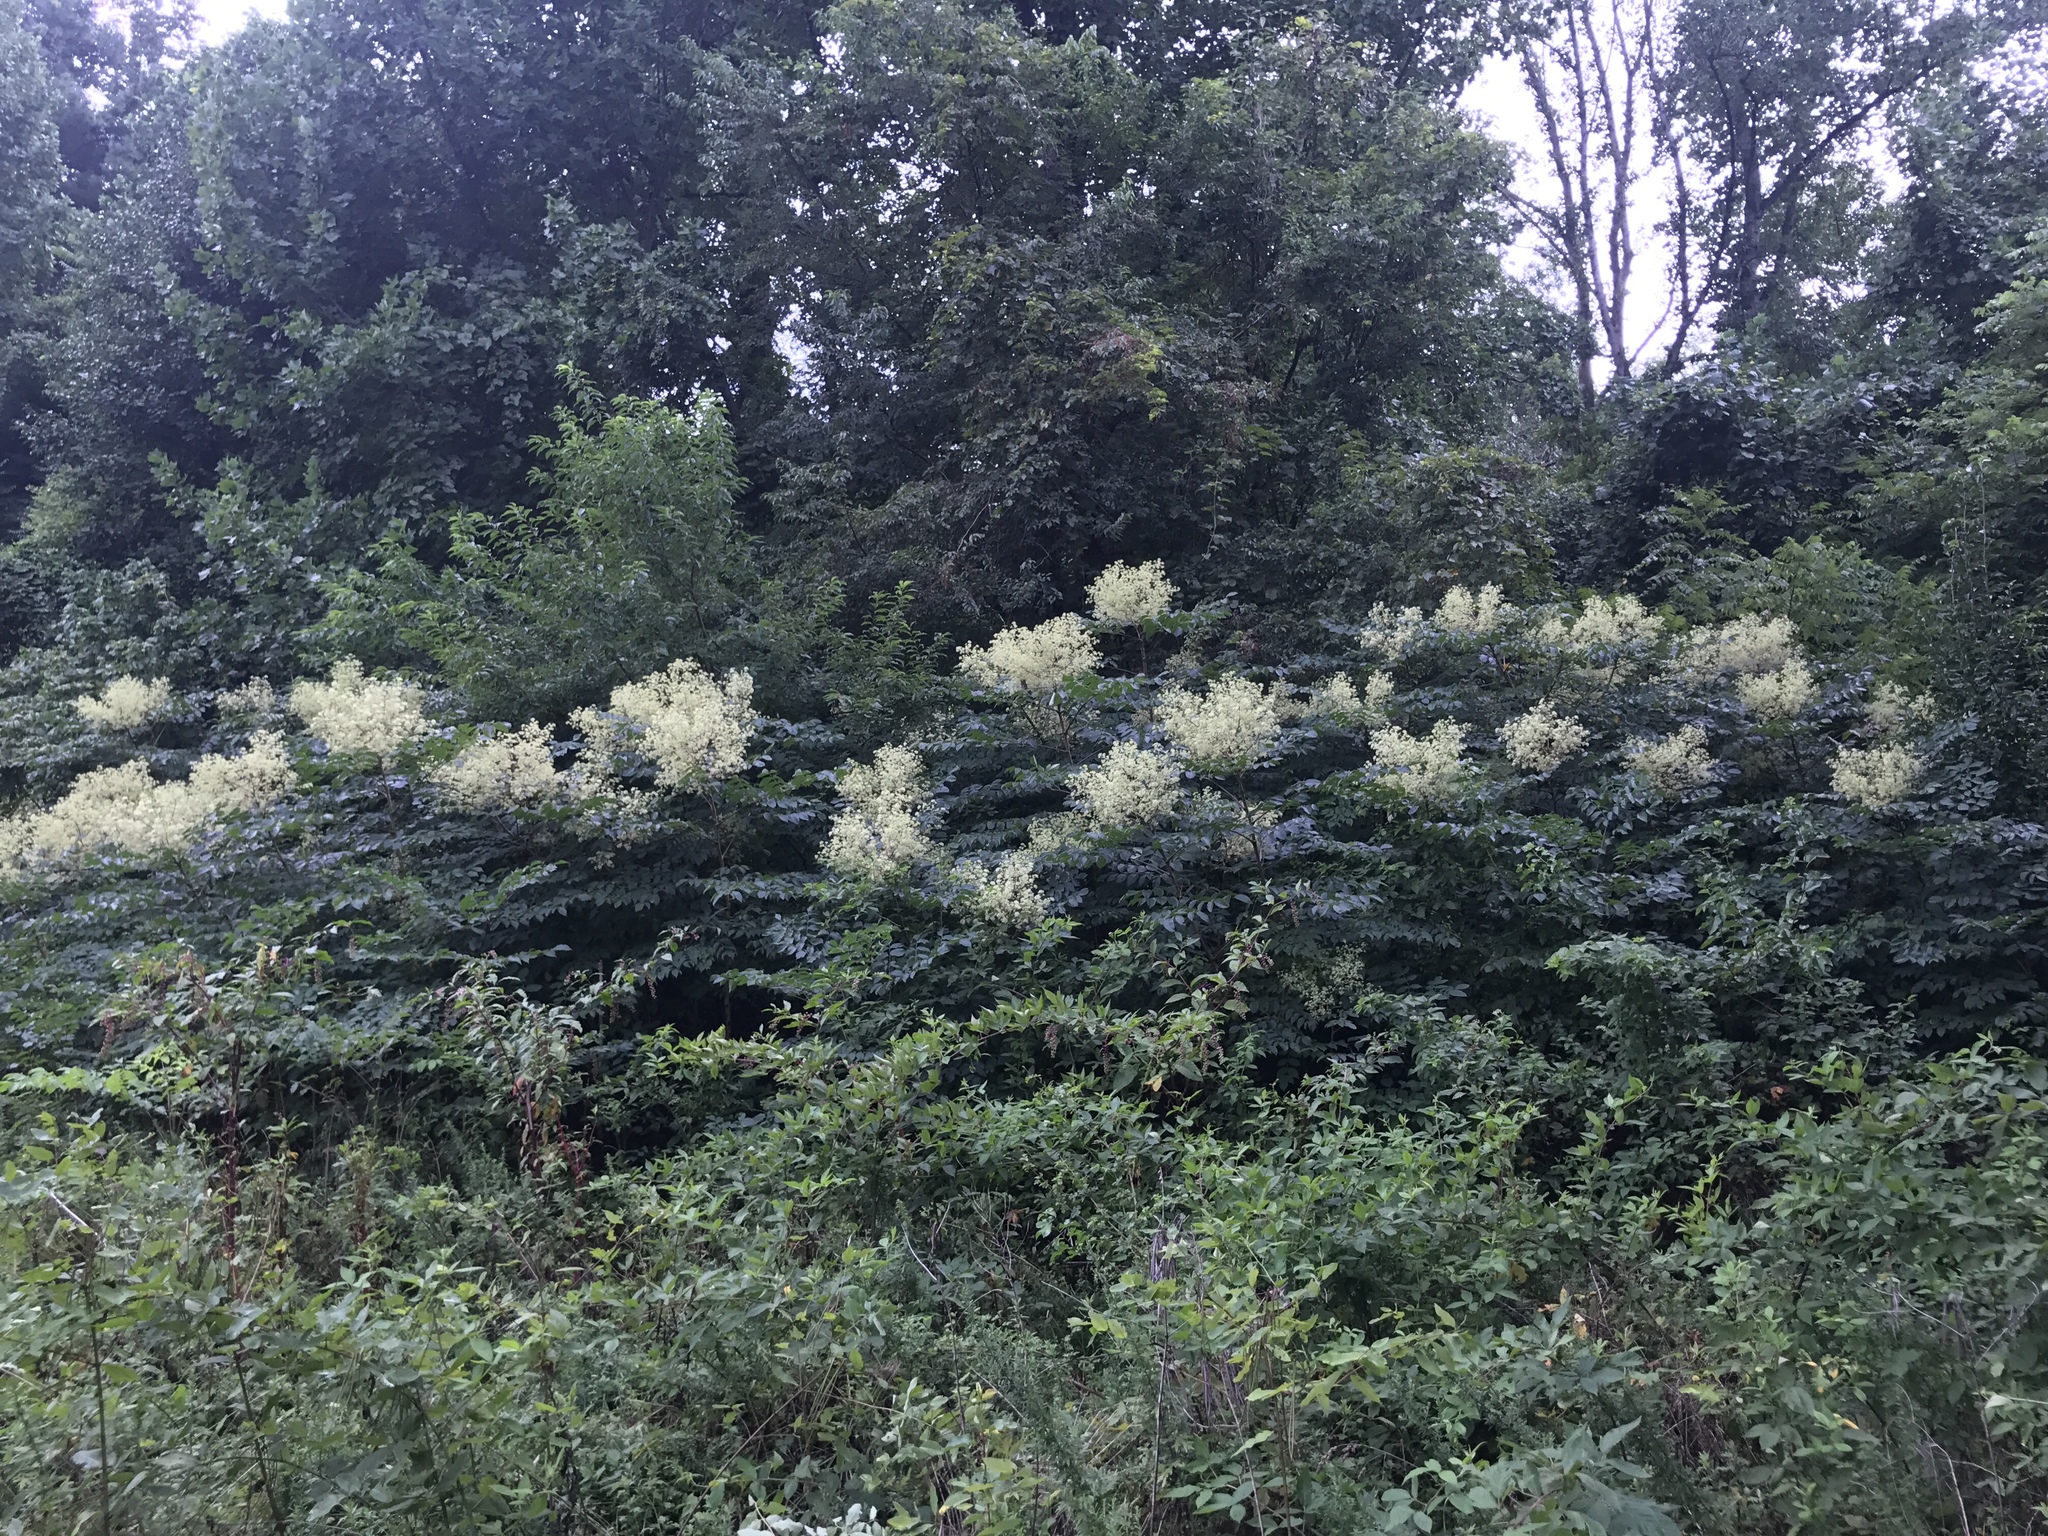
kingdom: Plantae
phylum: Tracheophyta
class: Magnoliopsida
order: Apiales
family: Araliaceae
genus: Aralia
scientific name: Aralia spinosa
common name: Hercules'-club
